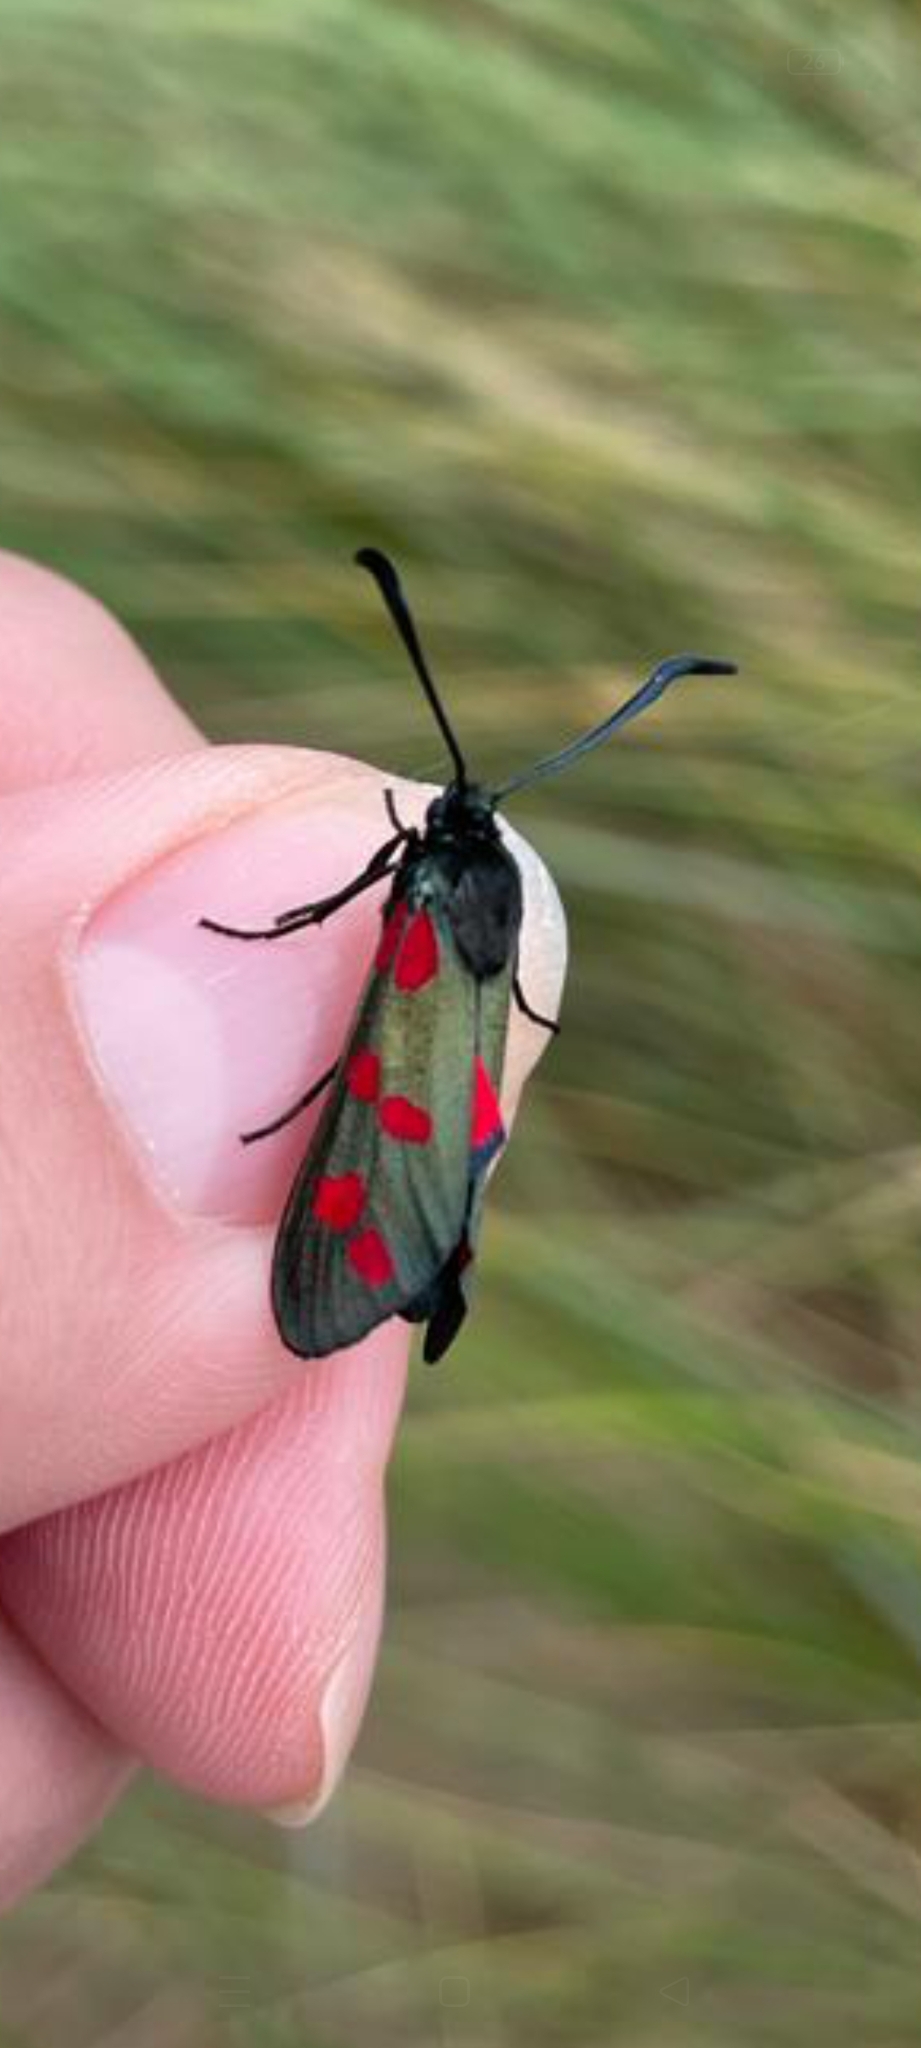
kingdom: Animalia
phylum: Arthropoda
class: Insecta
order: Lepidoptera
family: Zygaenidae
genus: Zygaena
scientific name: Zygaena filipendulae
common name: Six-spot burnet
